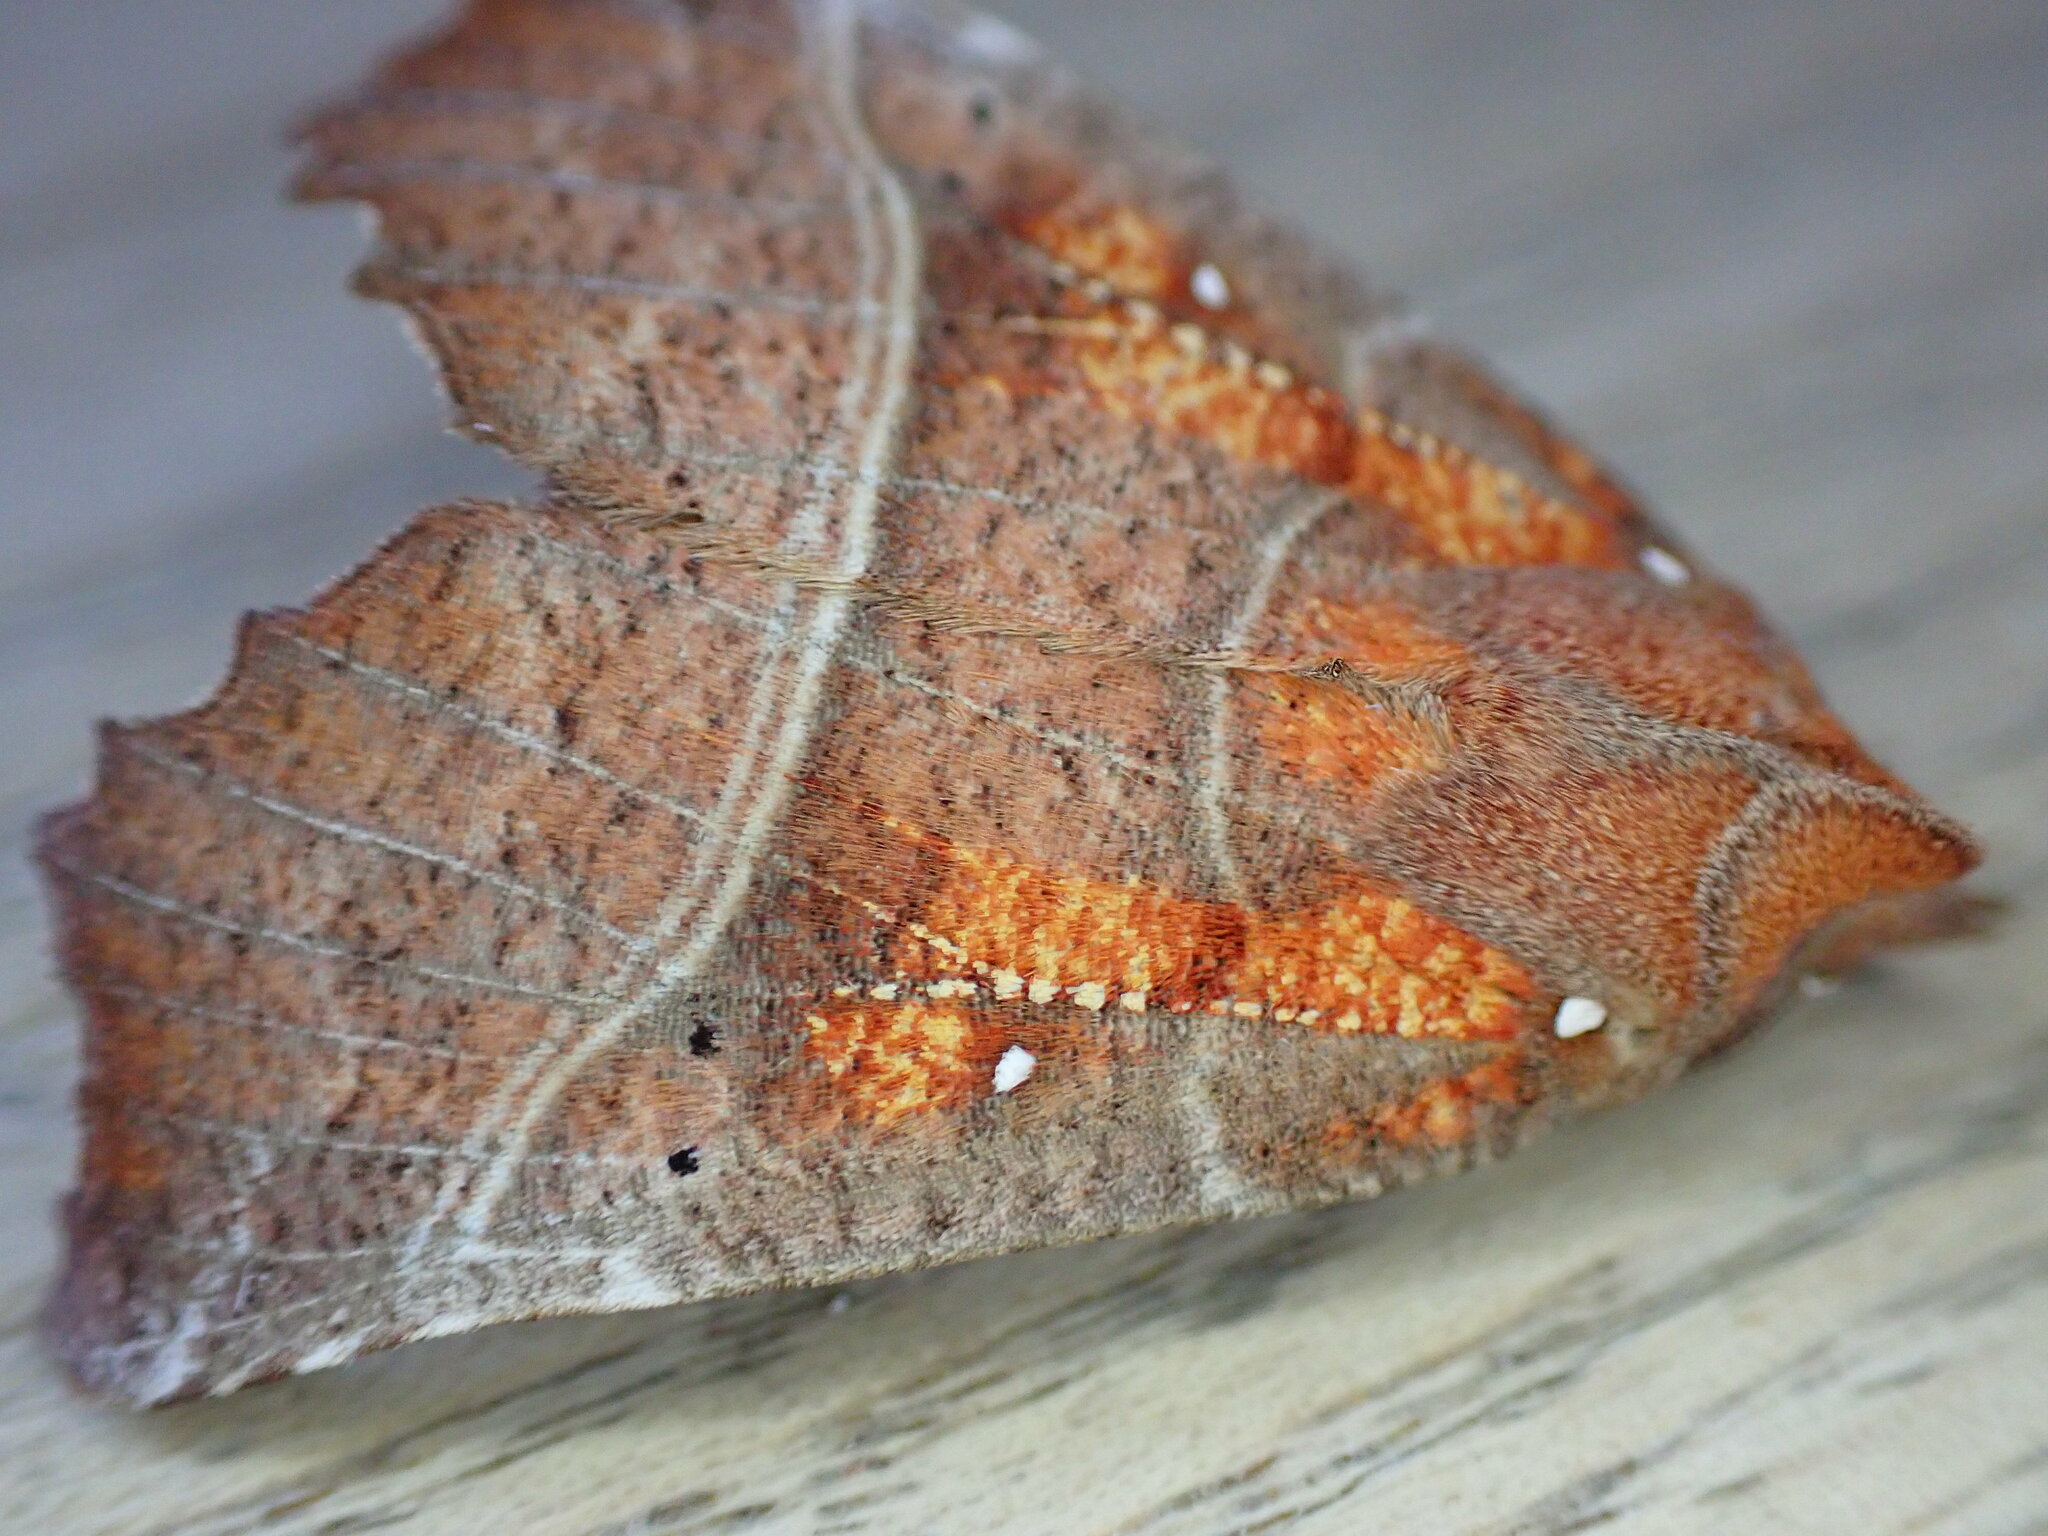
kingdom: Animalia
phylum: Arthropoda
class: Insecta
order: Lepidoptera
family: Erebidae
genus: Scoliopteryx
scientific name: Scoliopteryx libatrix
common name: Herald
